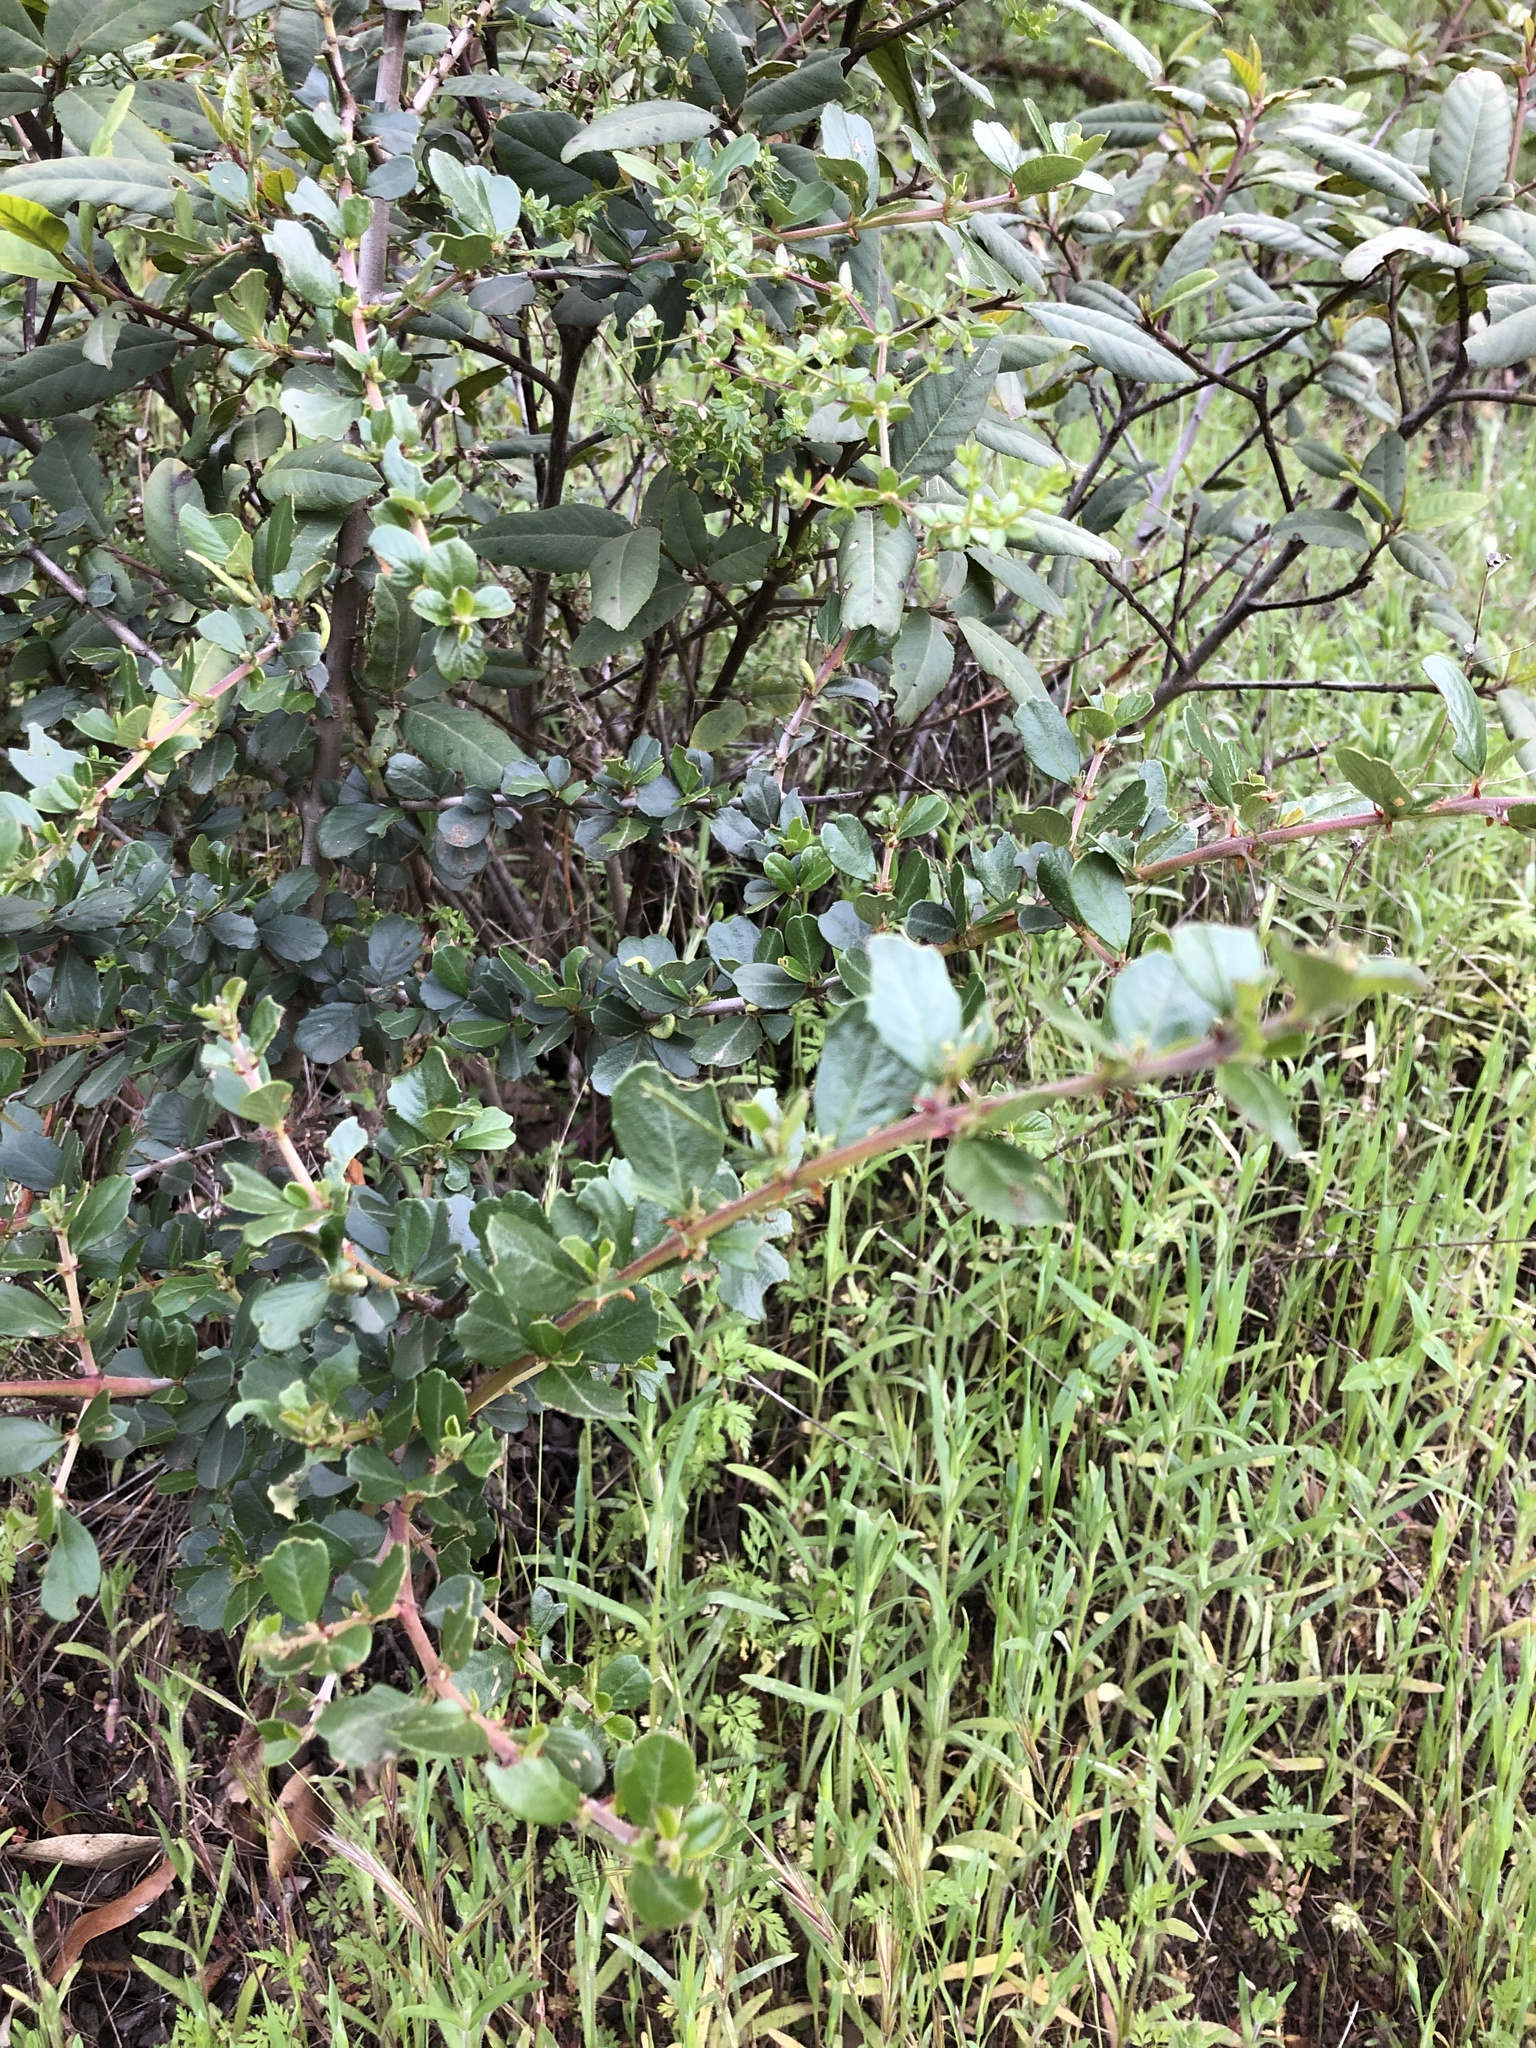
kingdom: Plantae
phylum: Tracheophyta
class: Magnoliopsida
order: Rosales
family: Rhamnaceae
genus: Ceanothus
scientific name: Ceanothus cuneatus
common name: Cuneate ceanothus
